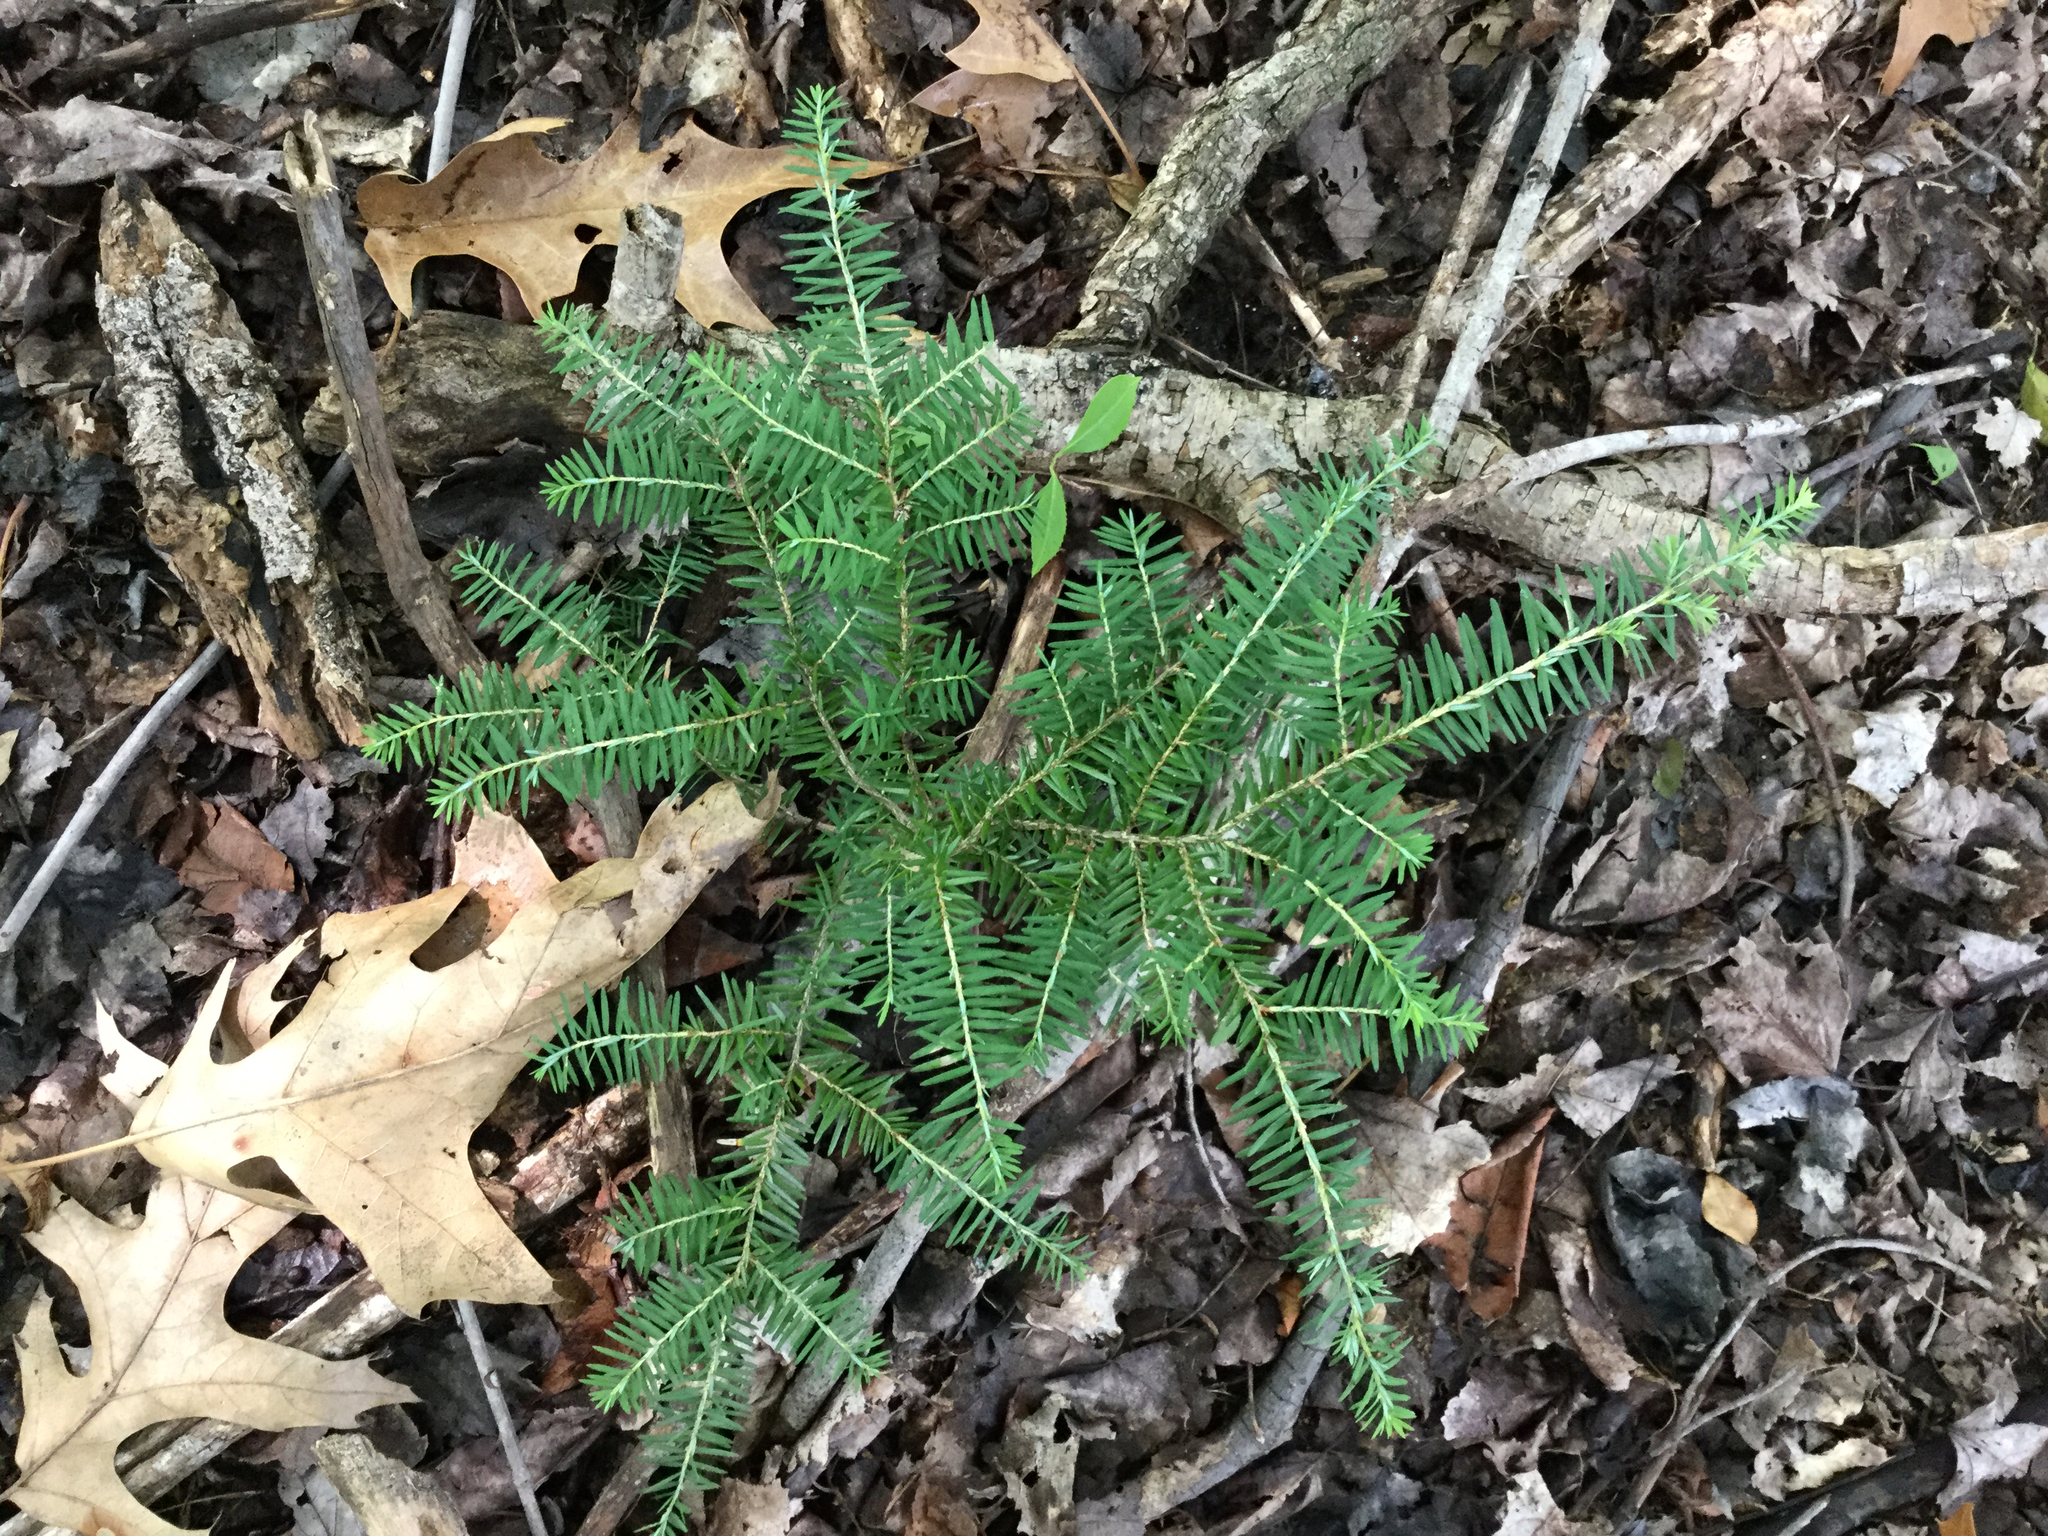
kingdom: Plantae
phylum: Tracheophyta
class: Pinopsida
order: Pinales
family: Pinaceae
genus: Tsuga
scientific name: Tsuga canadensis
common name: Eastern hemlock
